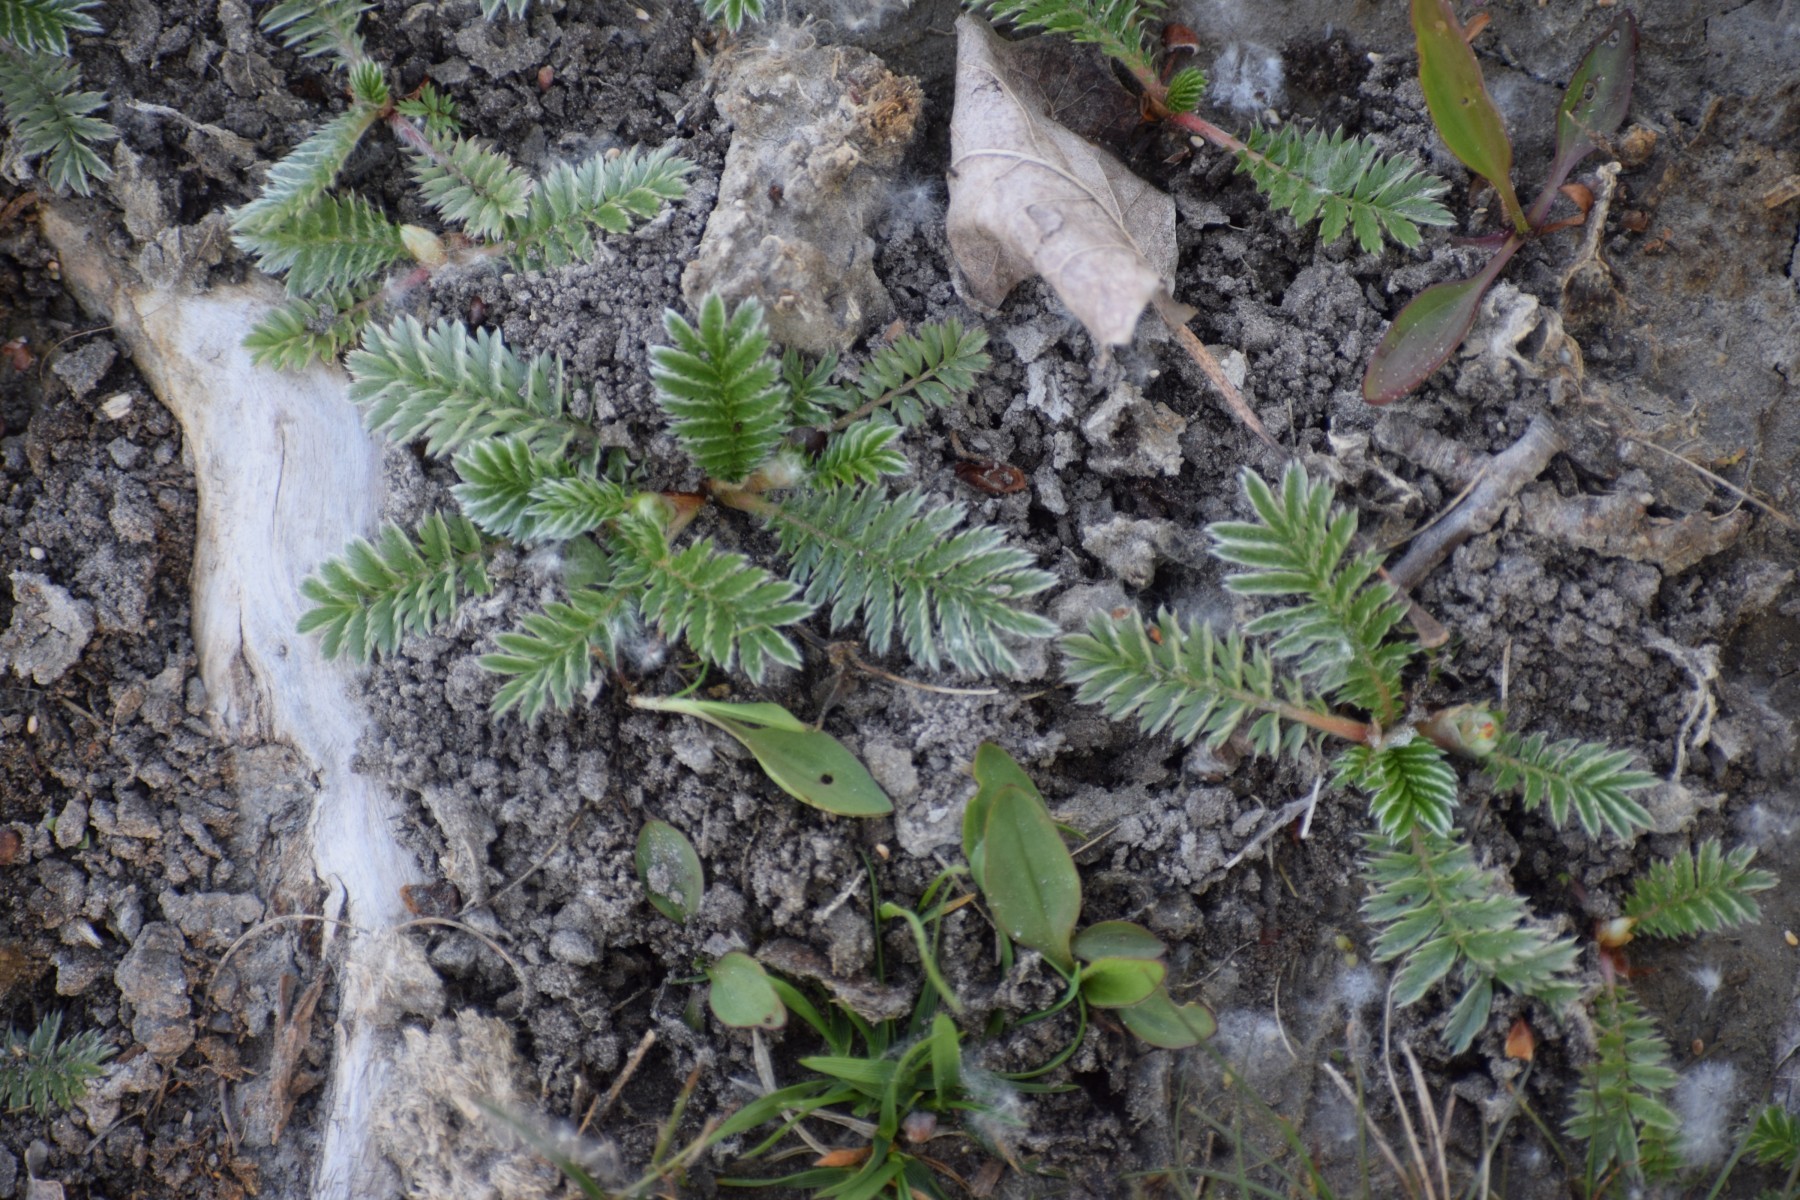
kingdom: Plantae
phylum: Tracheophyta
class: Magnoliopsida
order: Rosales
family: Rosaceae
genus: Argentina
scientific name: Argentina anserina
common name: Common silverweed
